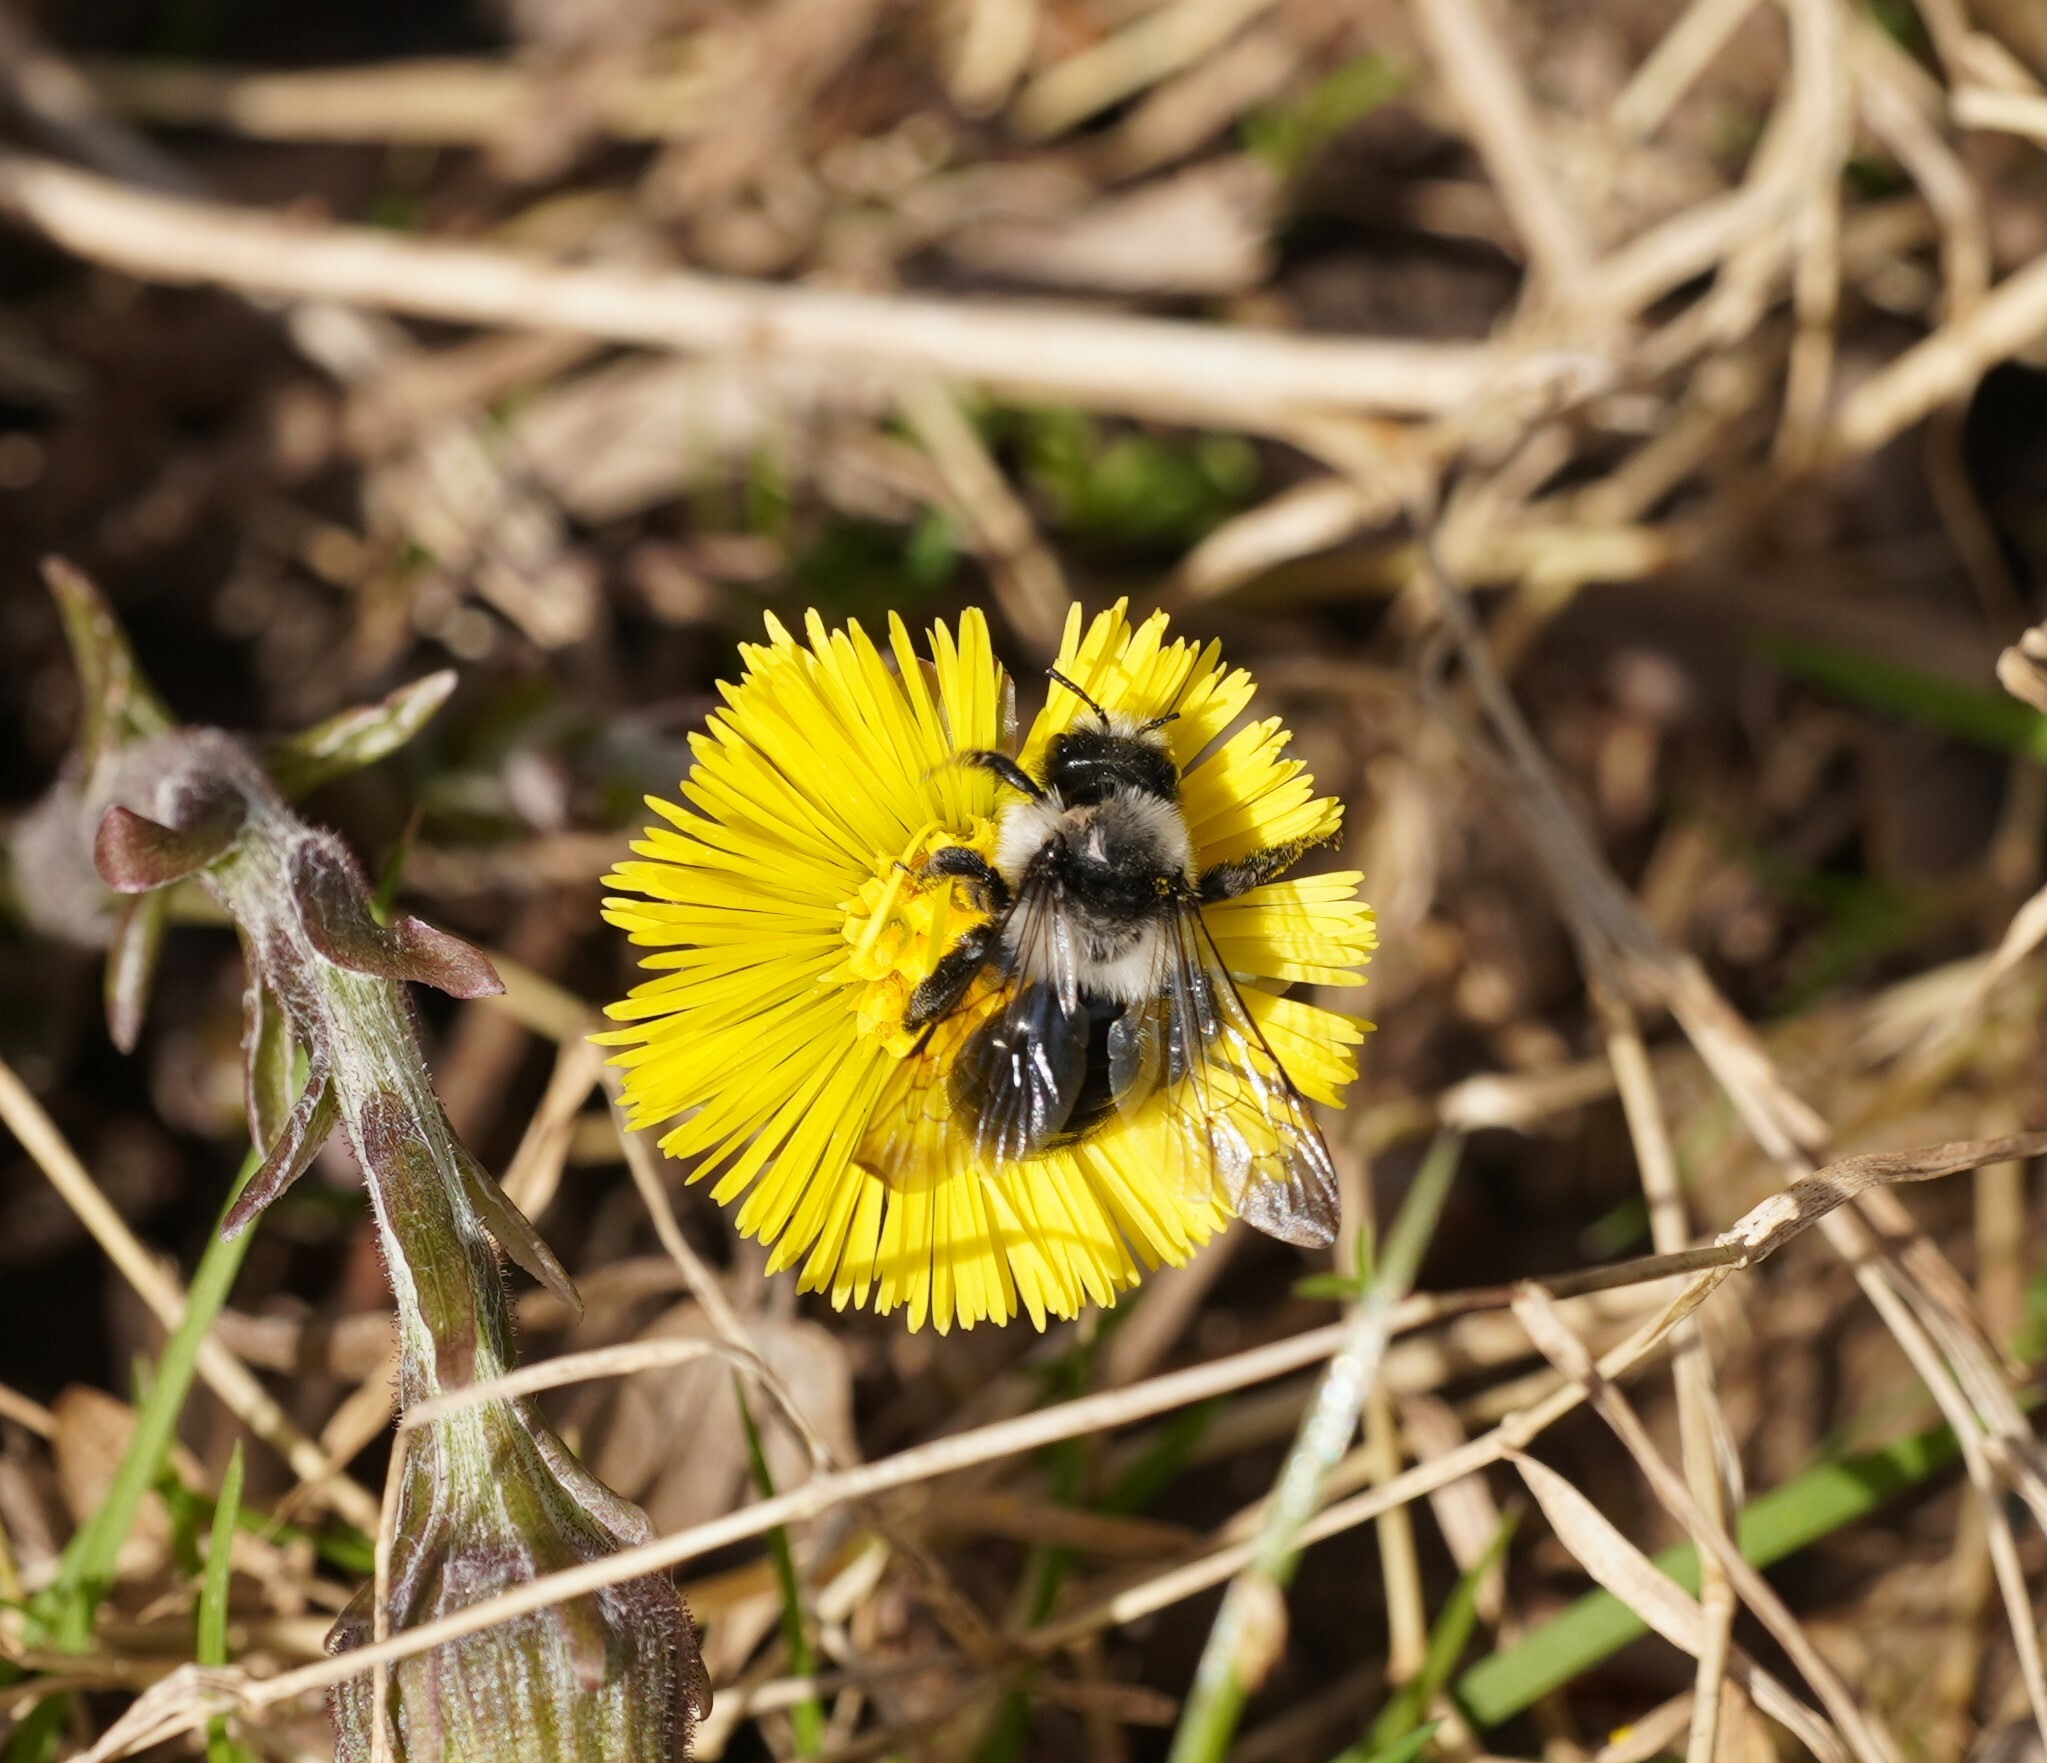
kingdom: Animalia
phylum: Arthropoda
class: Insecta
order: Hymenoptera
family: Andrenidae
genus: Andrena
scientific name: Andrena cineraria
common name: Ashy mining bee
